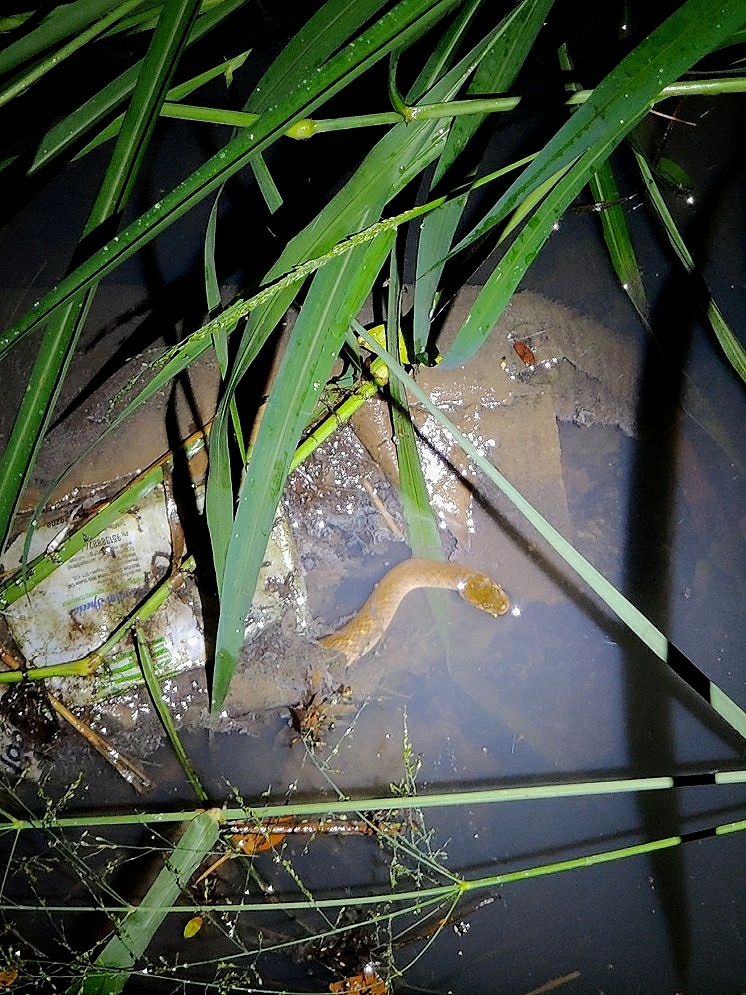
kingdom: Animalia
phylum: Chordata
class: Squamata
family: Colubridae
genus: Fowlea
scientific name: Fowlea piscator
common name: Asiatic water snake
